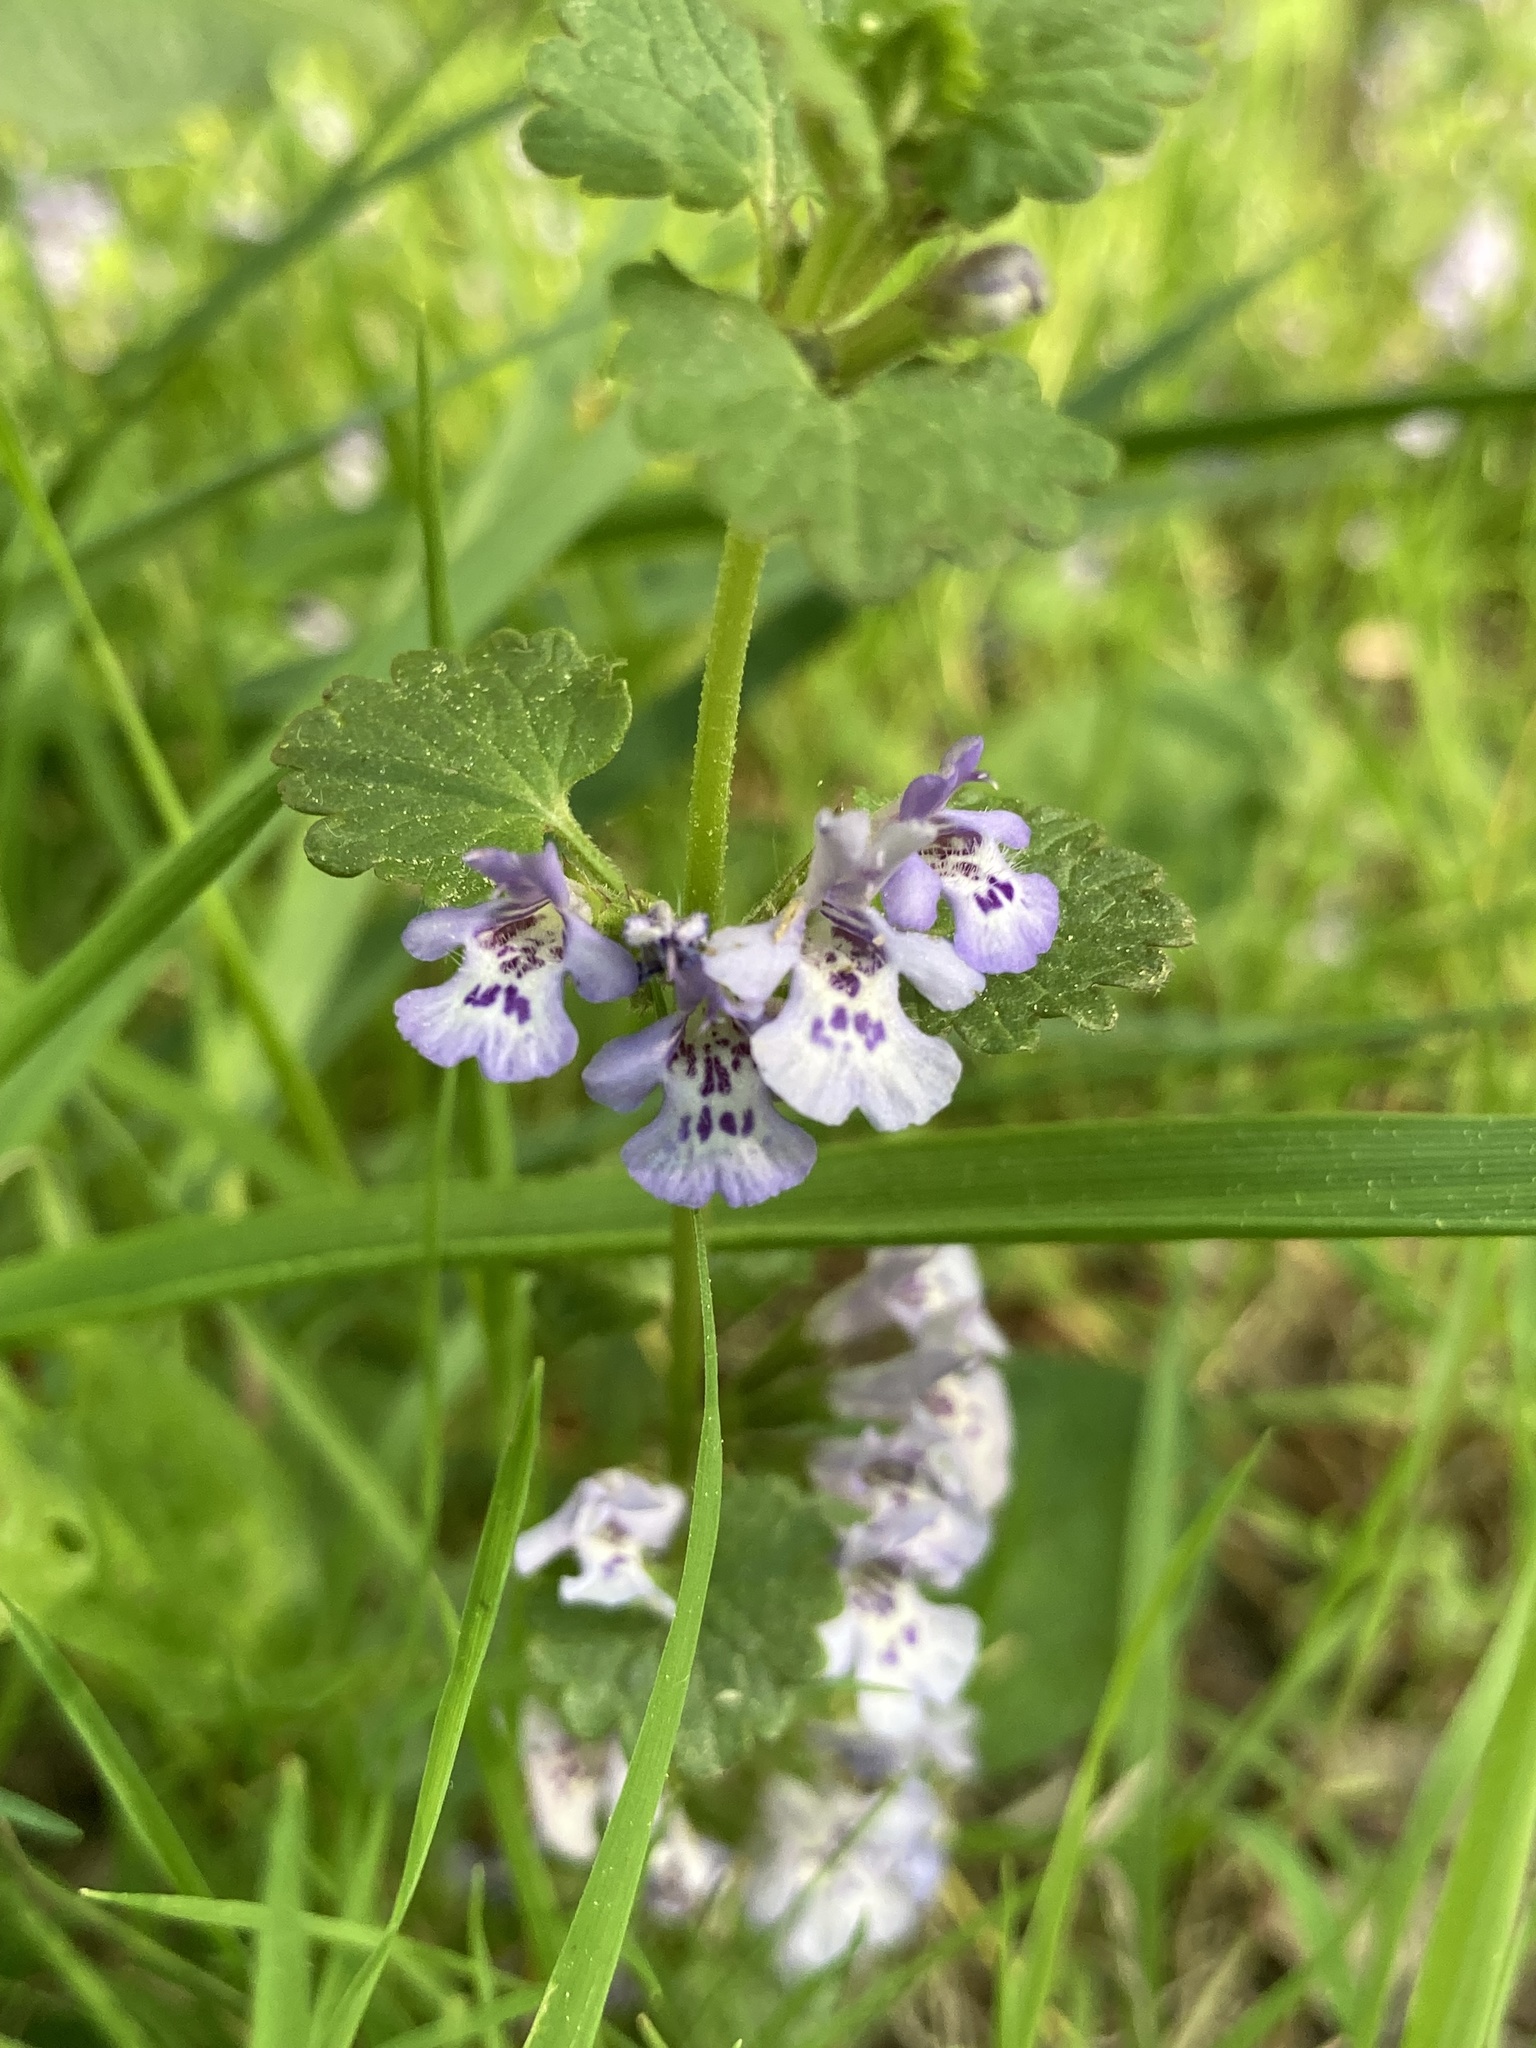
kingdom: Plantae
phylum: Tracheophyta
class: Magnoliopsida
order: Lamiales
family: Lamiaceae
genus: Glechoma
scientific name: Glechoma hederacea
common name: Ground ivy
